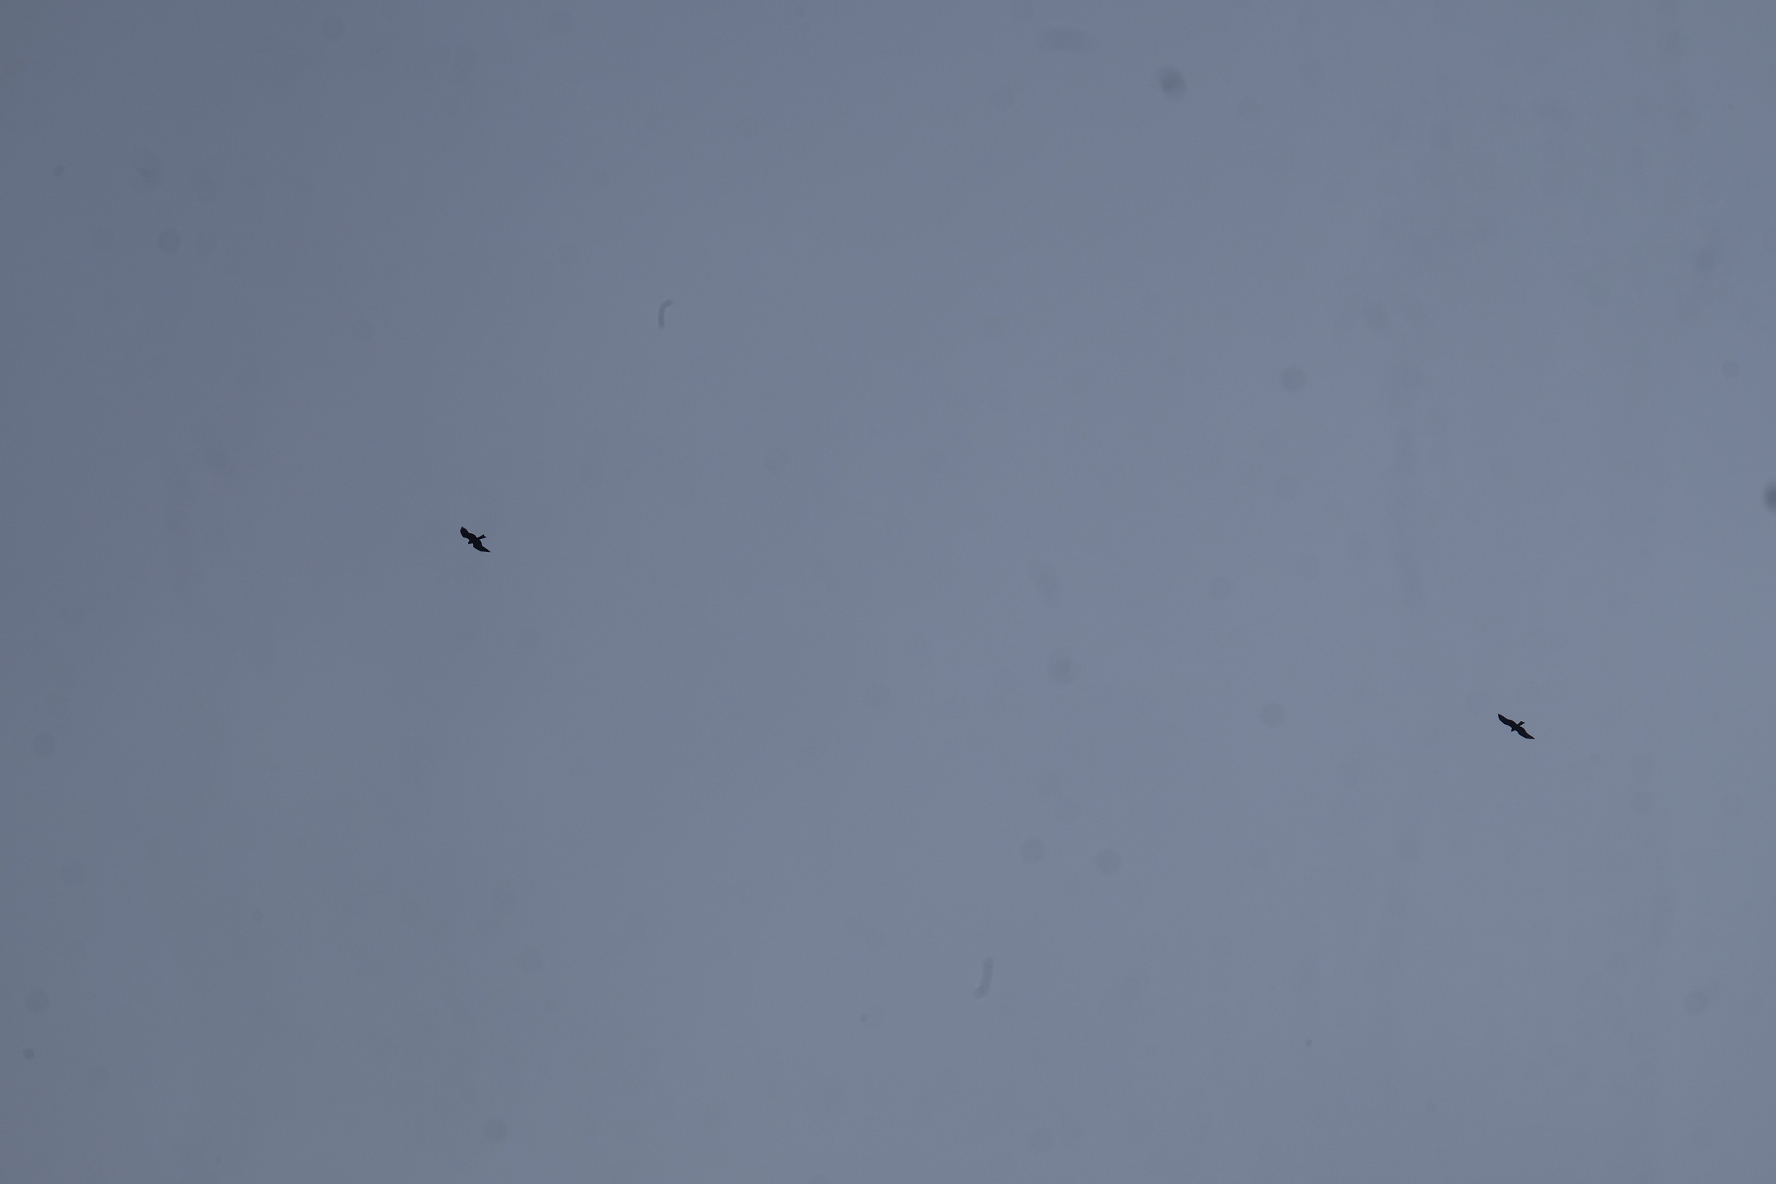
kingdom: Animalia
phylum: Chordata
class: Aves
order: Accipitriformes
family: Accipitridae
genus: Milvus
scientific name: Milvus migrans
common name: Black kite
